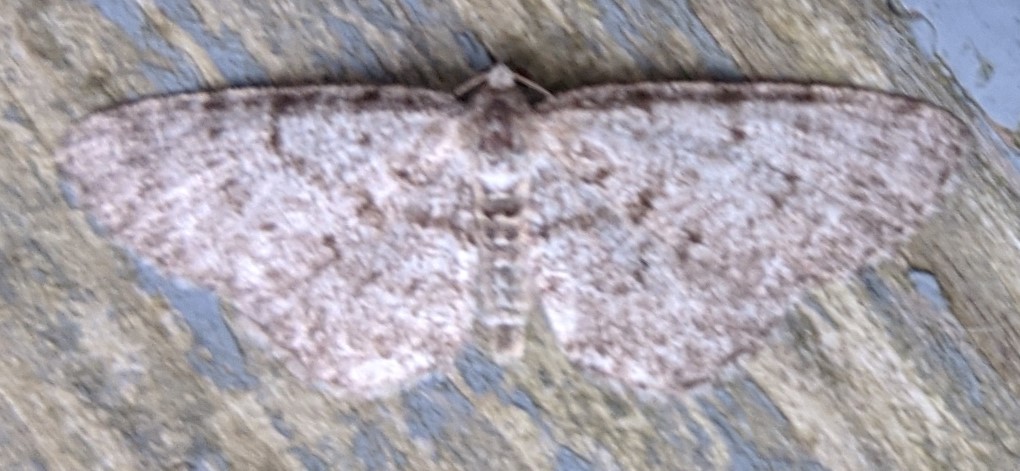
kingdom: Animalia
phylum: Arthropoda
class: Insecta
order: Lepidoptera
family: Geometridae
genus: Aethalura
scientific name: Aethalura intertexta
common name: Four-barred gray
